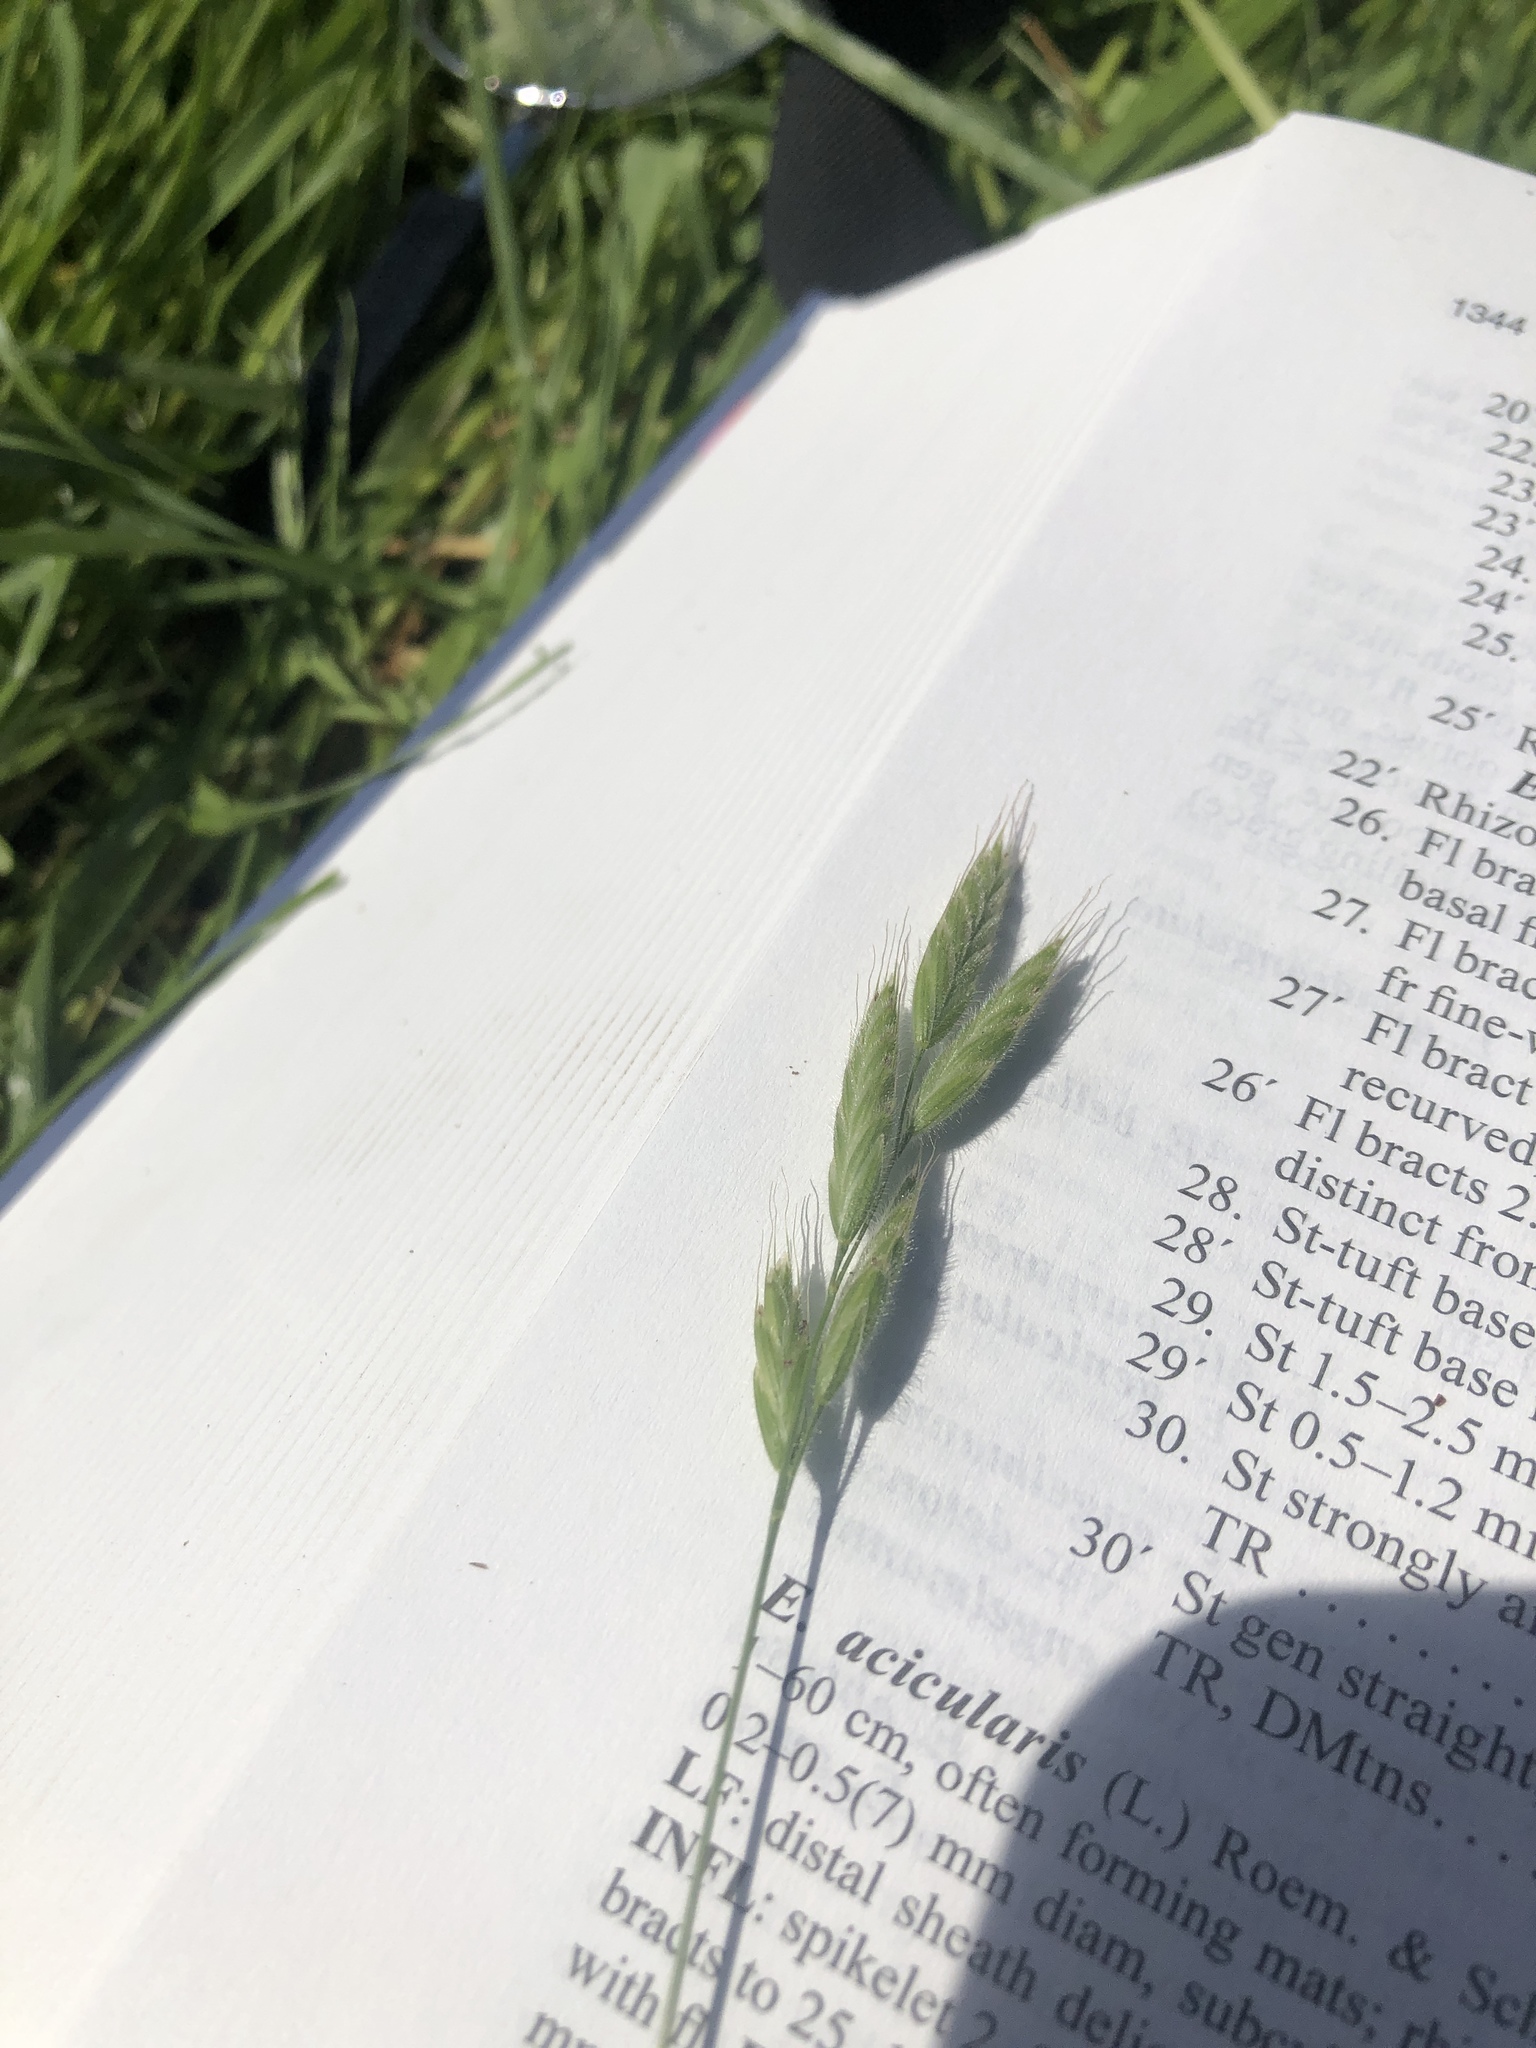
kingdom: Plantae
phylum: Tracheophyta
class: Liliopsida
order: Poales
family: Poaceae
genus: Bromus
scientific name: Bromus hordeaceus
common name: Soft brome
